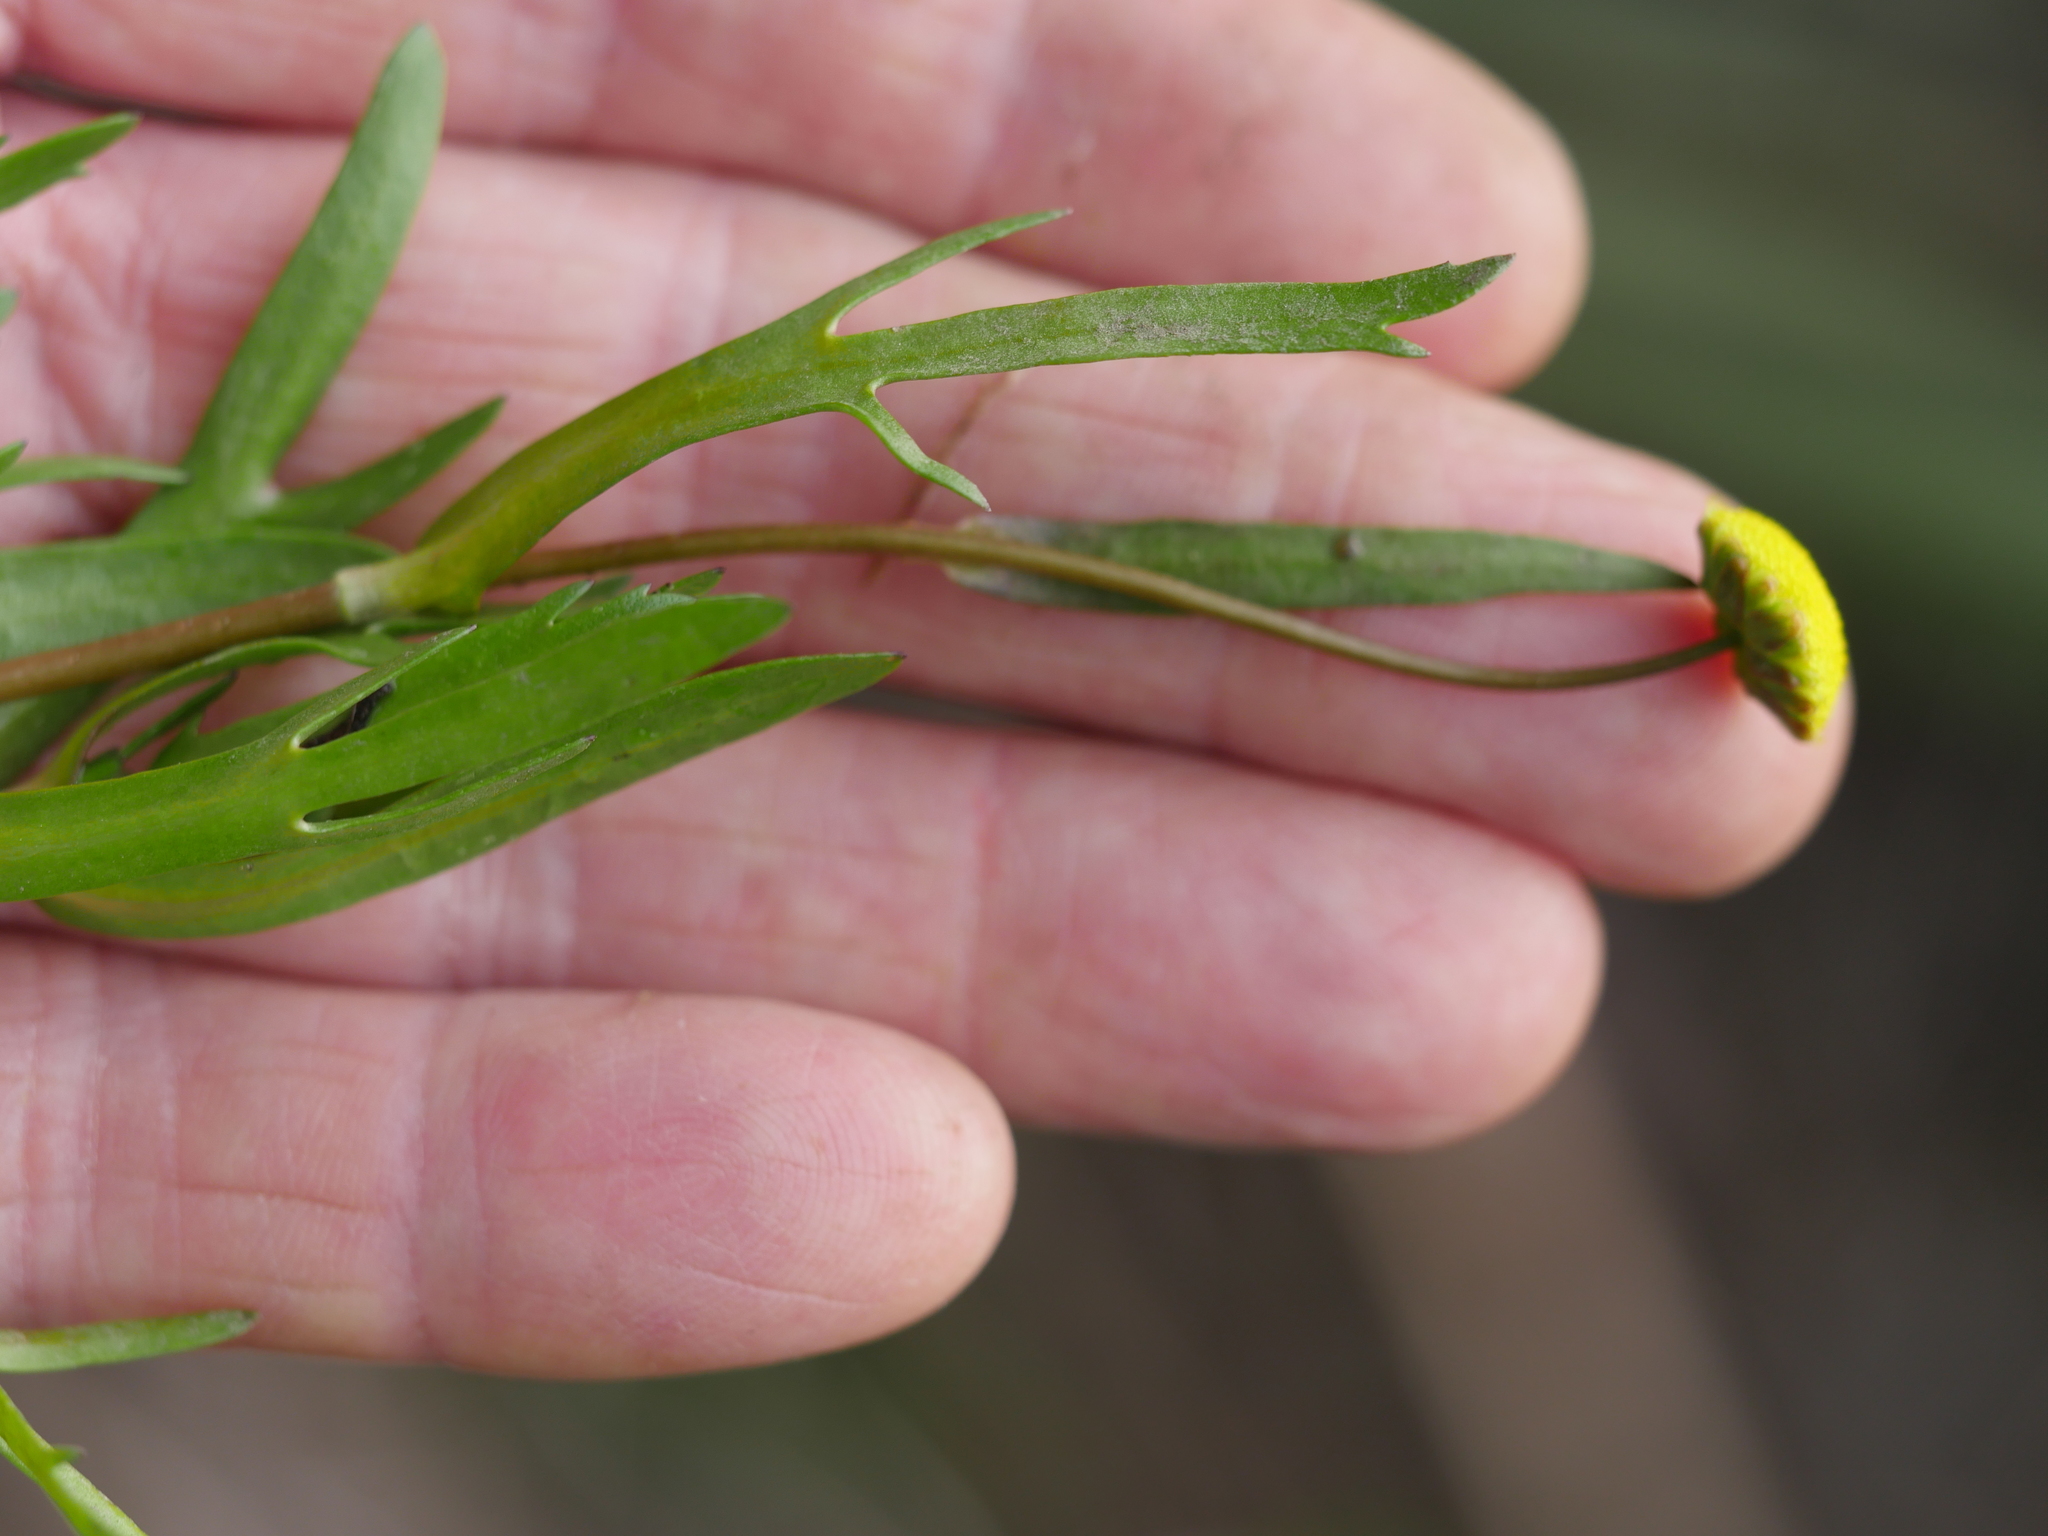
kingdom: Plantae
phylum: Tracheophyta
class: Magnoliopsida
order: Asterales
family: Asteraceae
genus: Cotula
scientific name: Cotula coronopifolia
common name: Buttonweed
